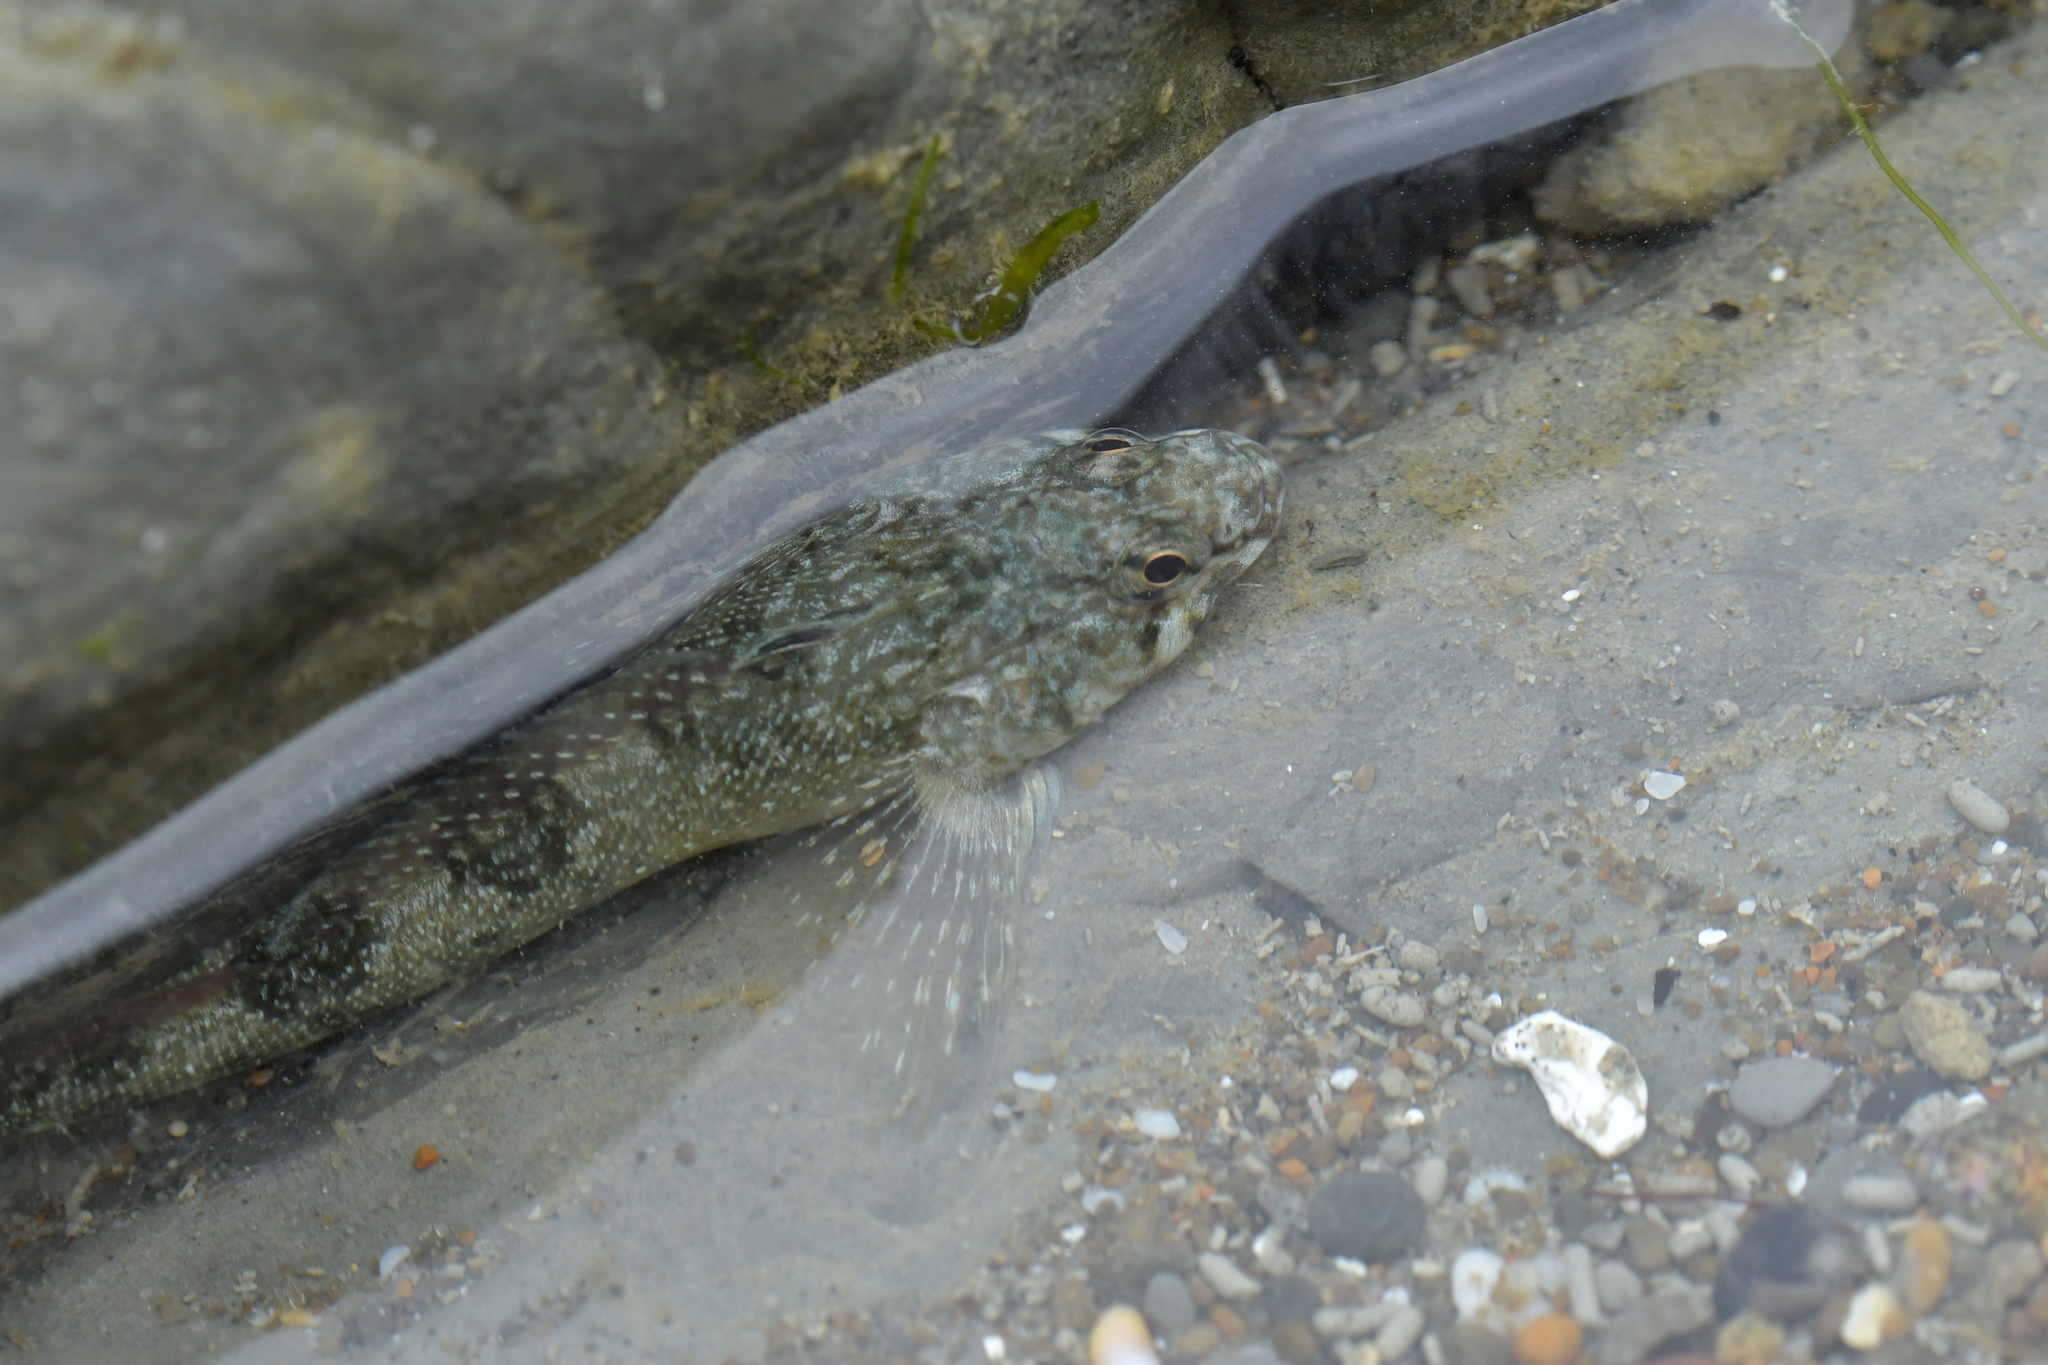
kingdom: Animalia
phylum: Chordata
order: Perciformes
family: Tripterygiidae
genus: Bellapiscis
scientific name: Bellapiscis medius
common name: Twister
